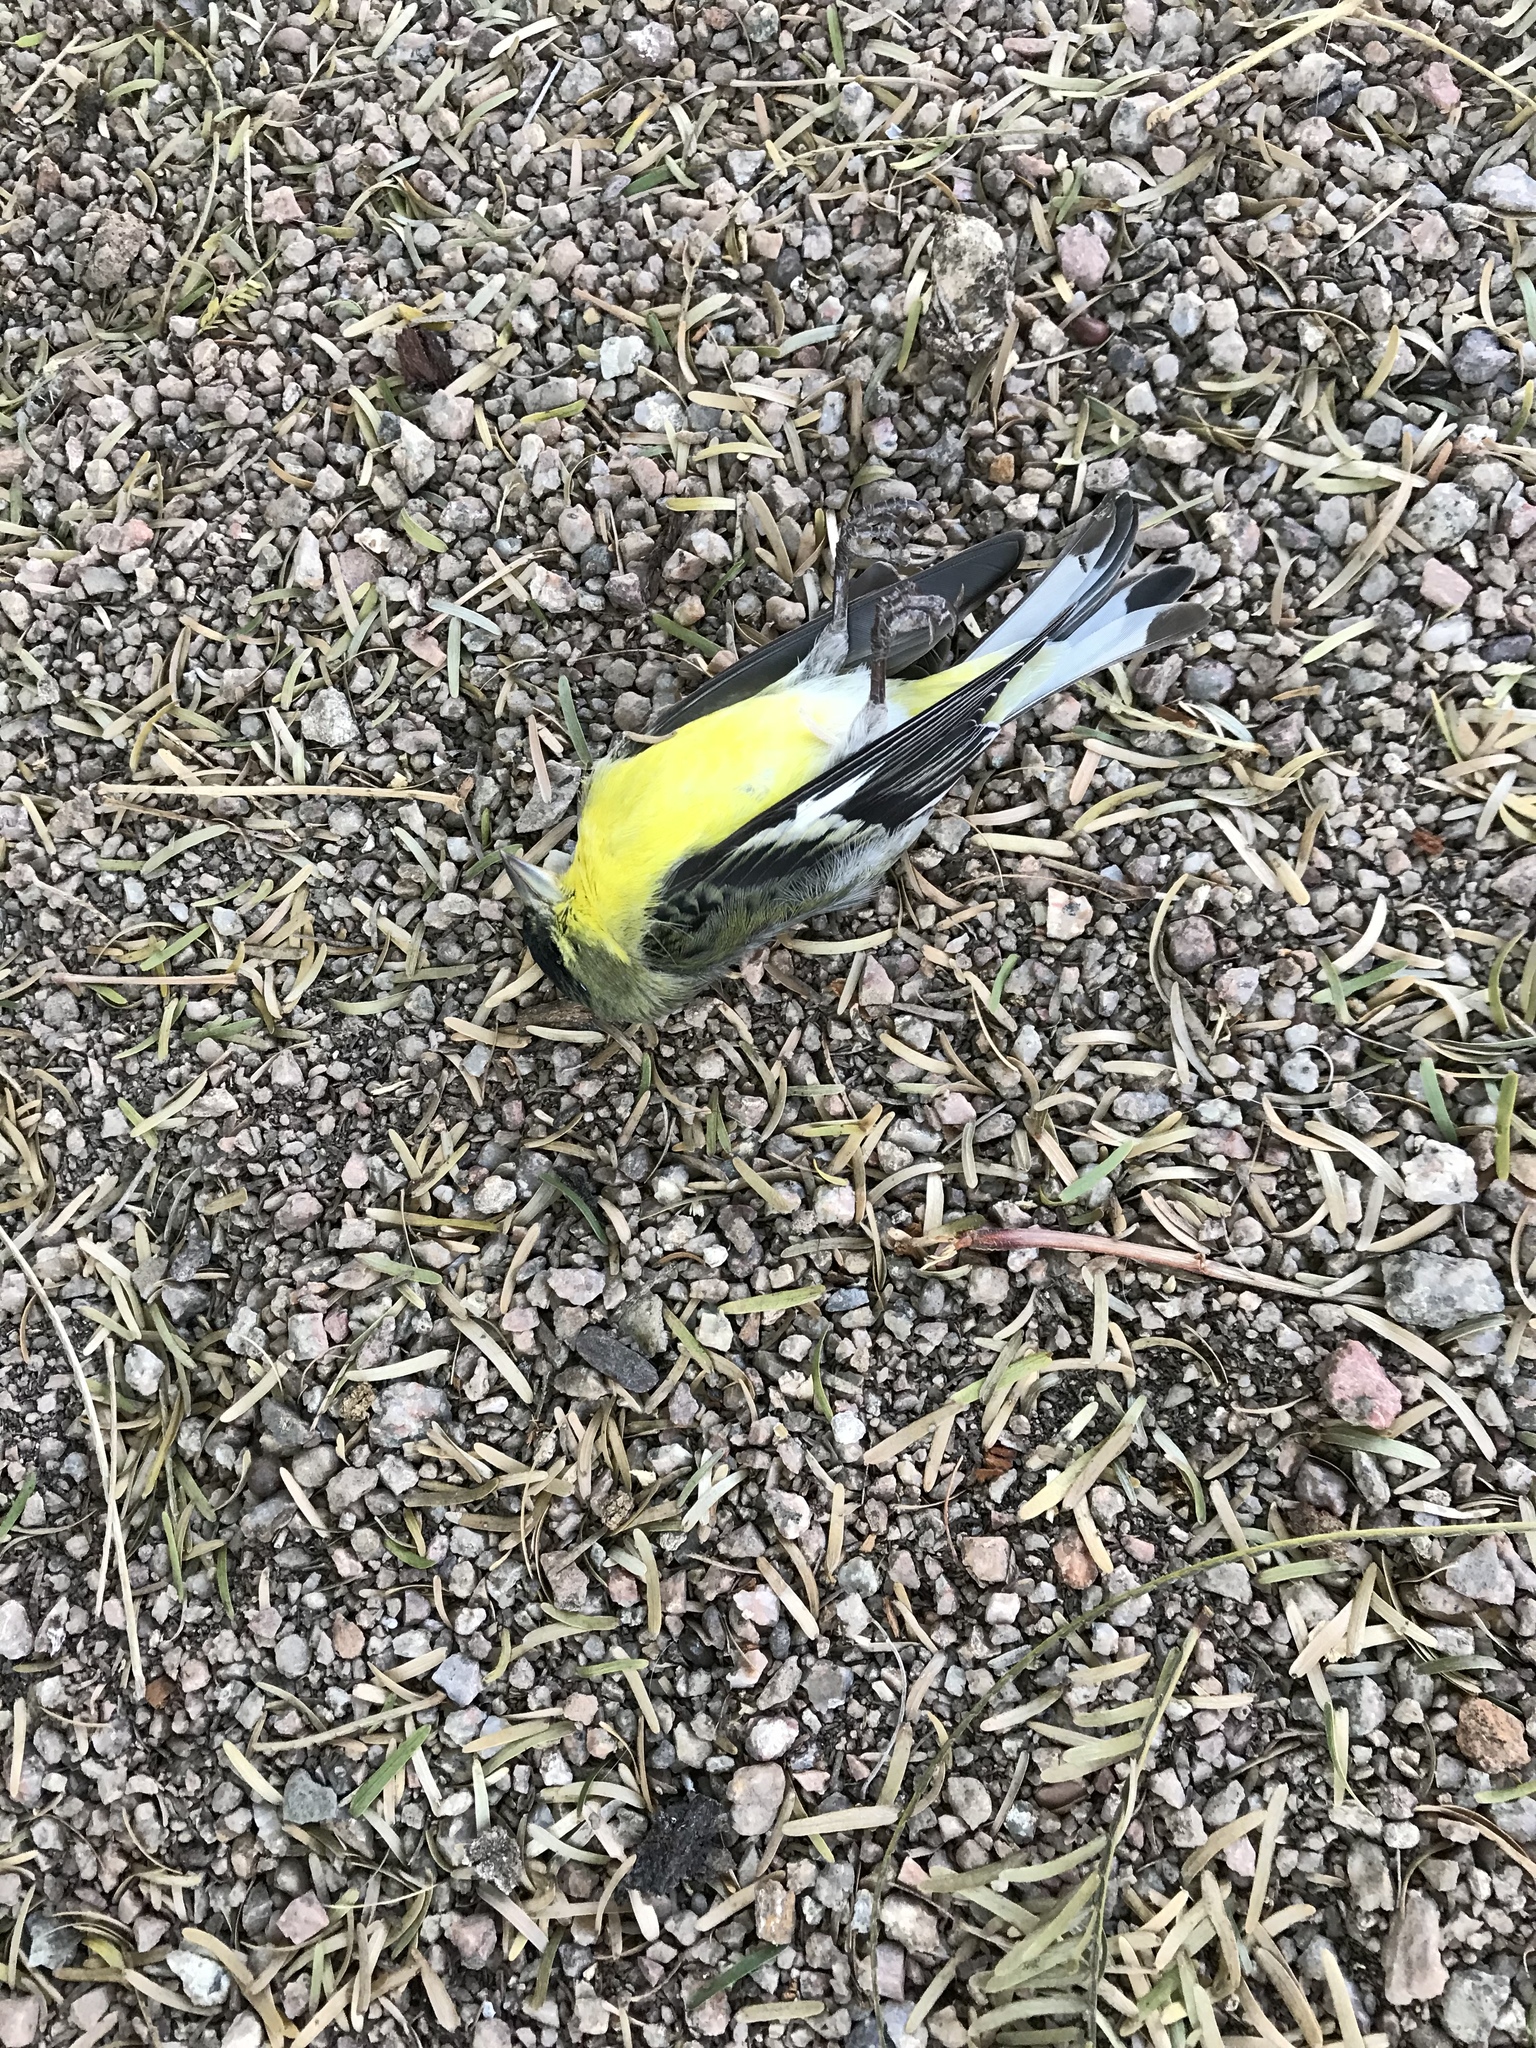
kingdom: Animalia
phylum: Chordata
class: Aves
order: Passeriformes
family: Fringillidae
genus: Spinus
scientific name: Spinus psaltria
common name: Lesser goldfinch
